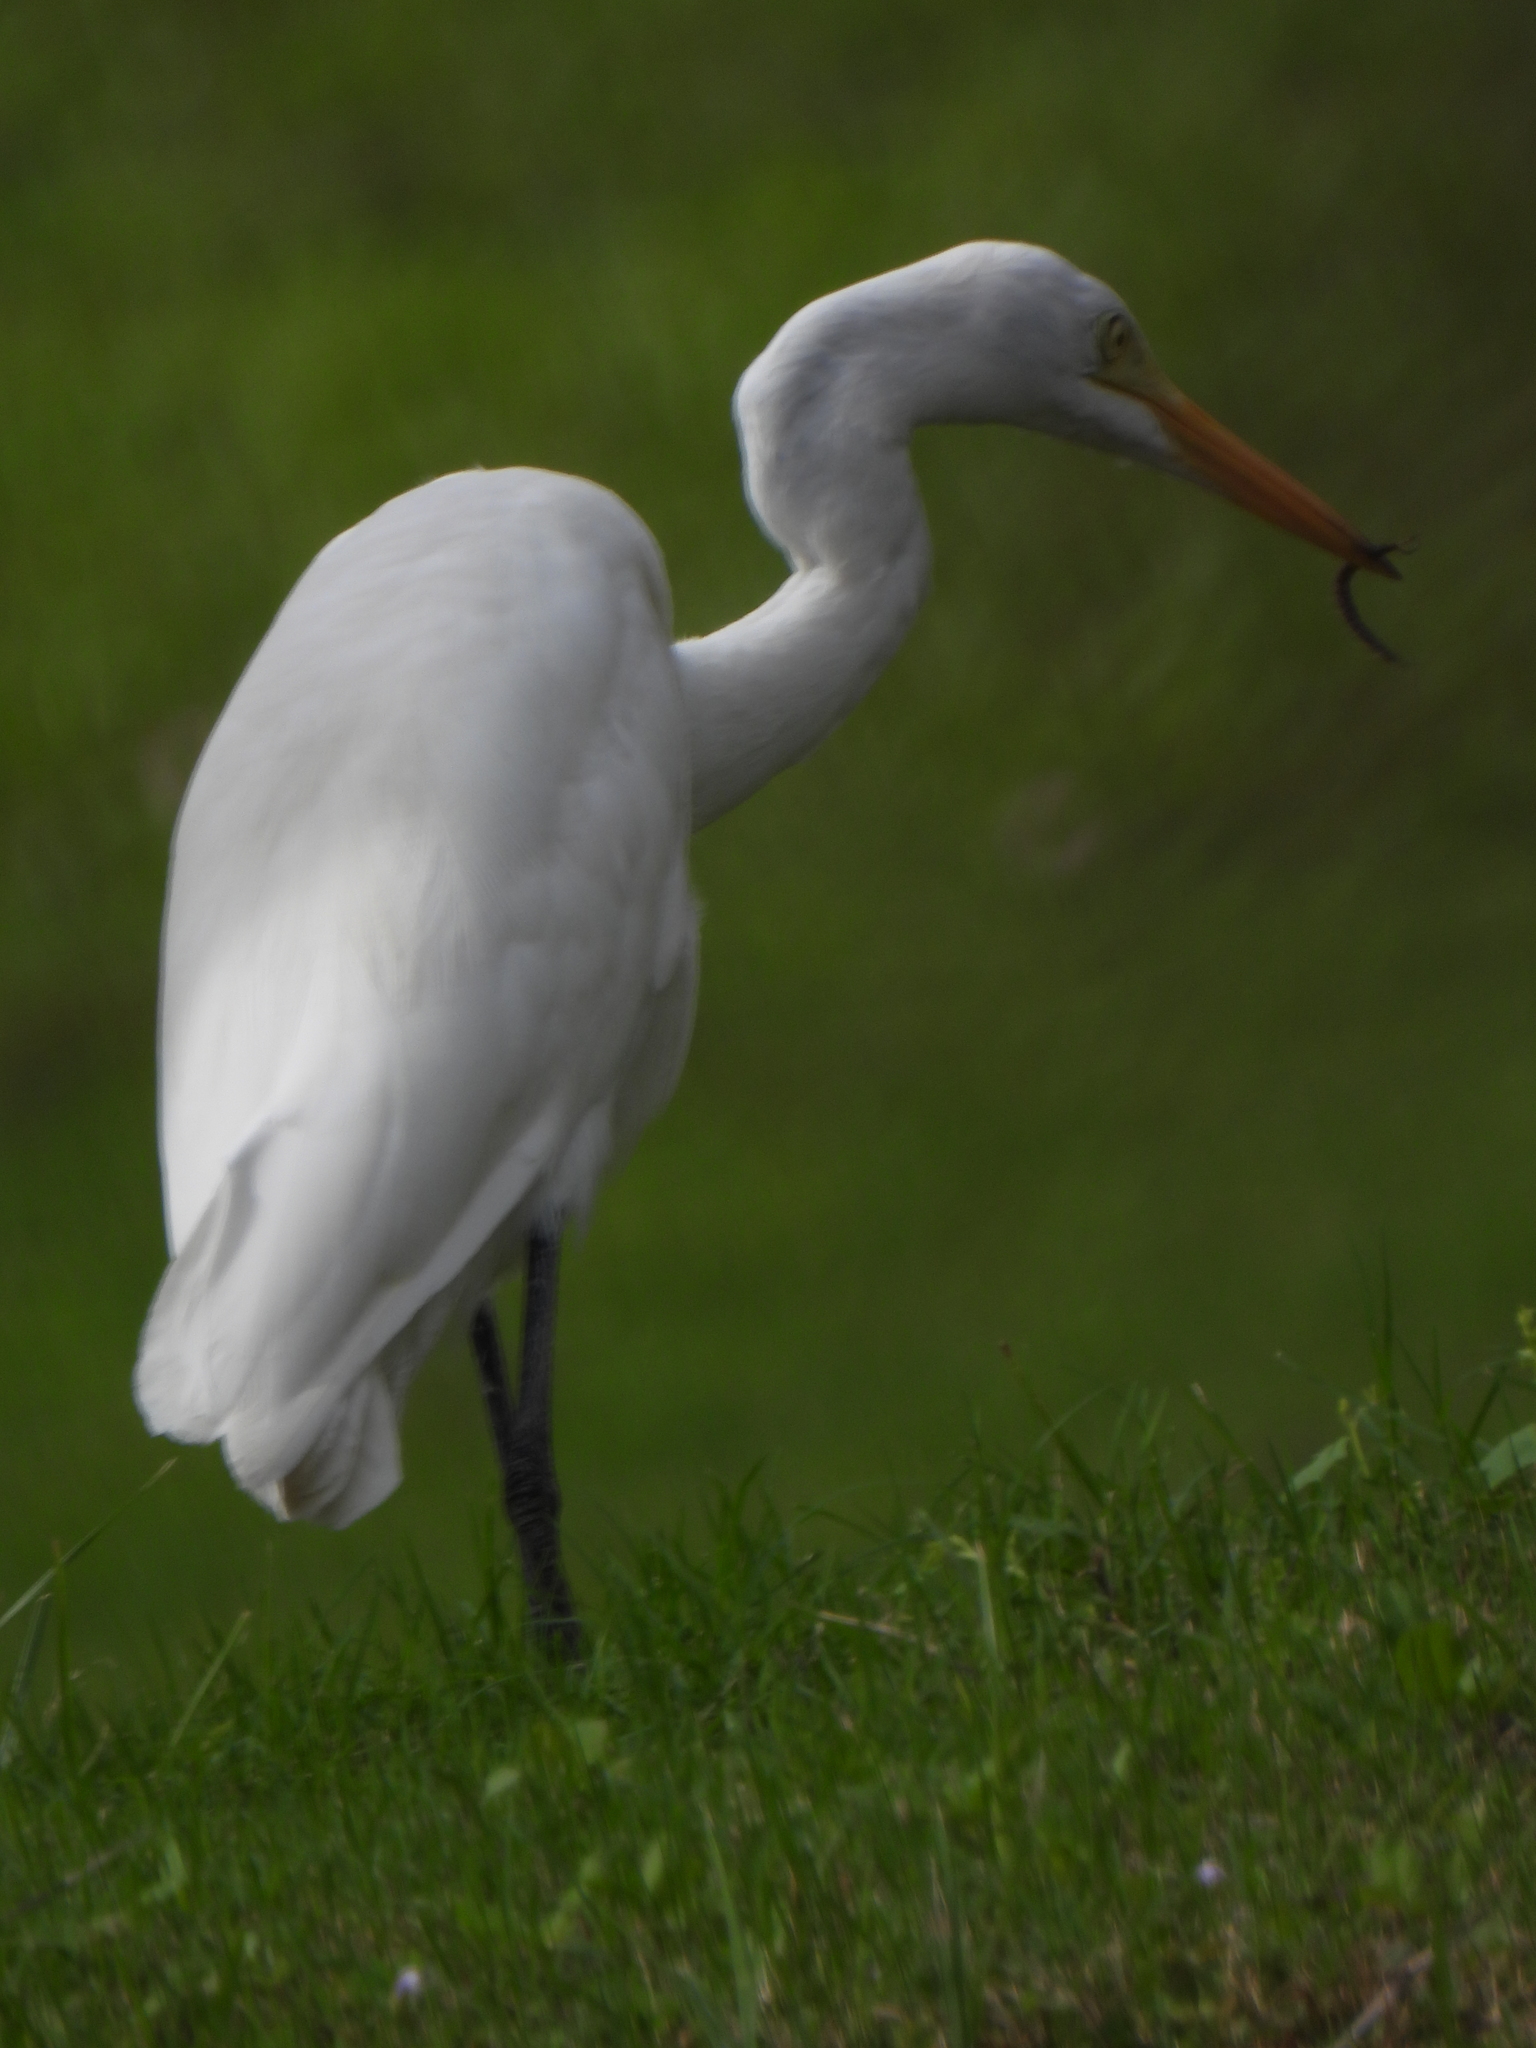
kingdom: Animalia
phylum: Chordata
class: Aves
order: Pelecaniformes
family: Ardeidae
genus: Egretta
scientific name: Egretta intermedia
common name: Intermediate egret
